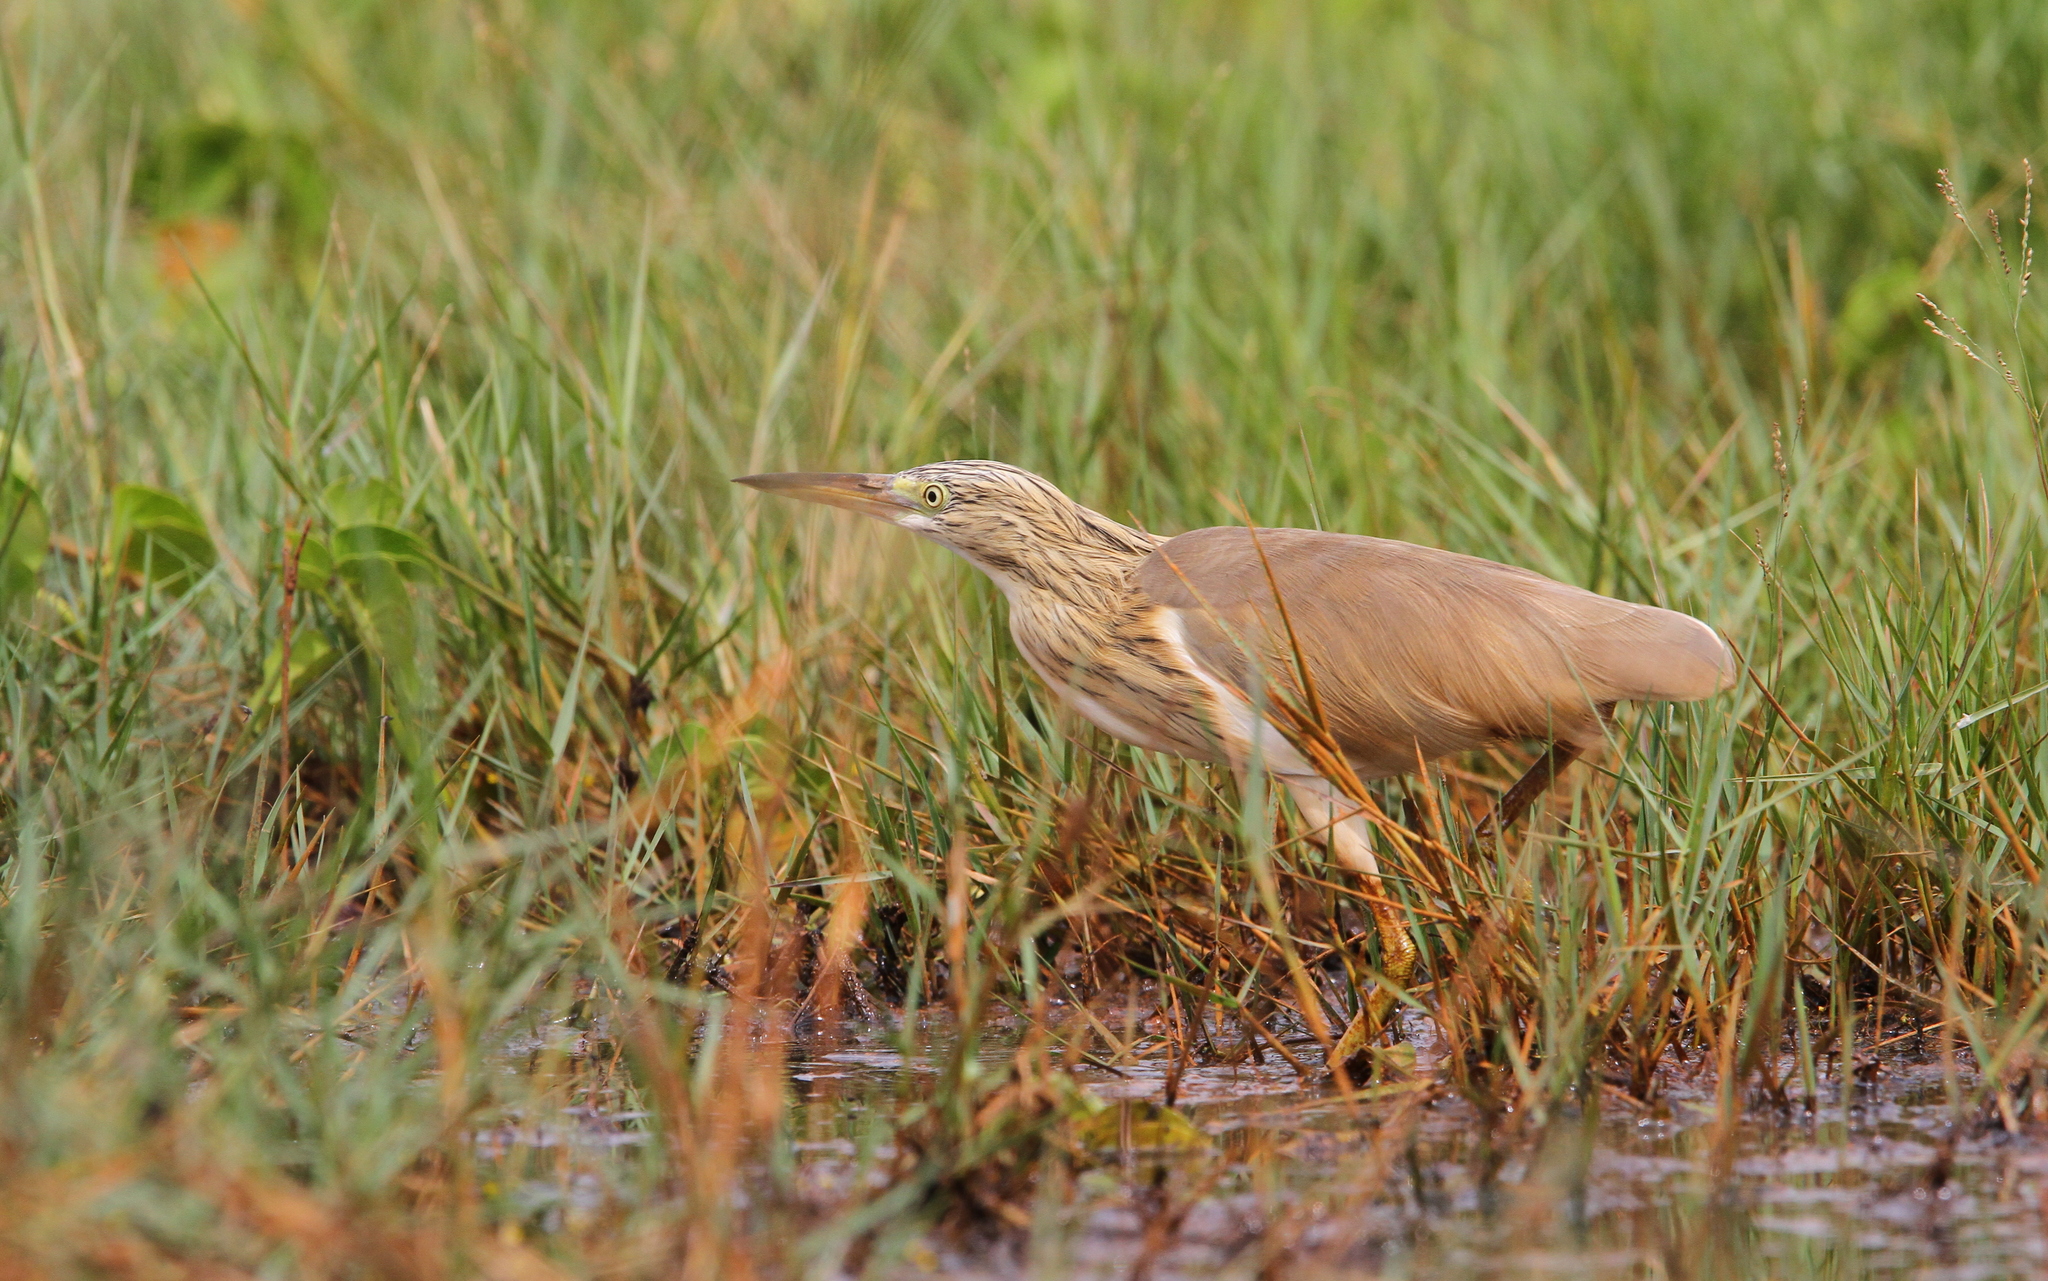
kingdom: Animalia
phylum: Chordata
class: Aves
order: Pelecaniformes
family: Ardeidae
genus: Ardeola
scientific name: Ardeola ralloides
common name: Squacco heron
